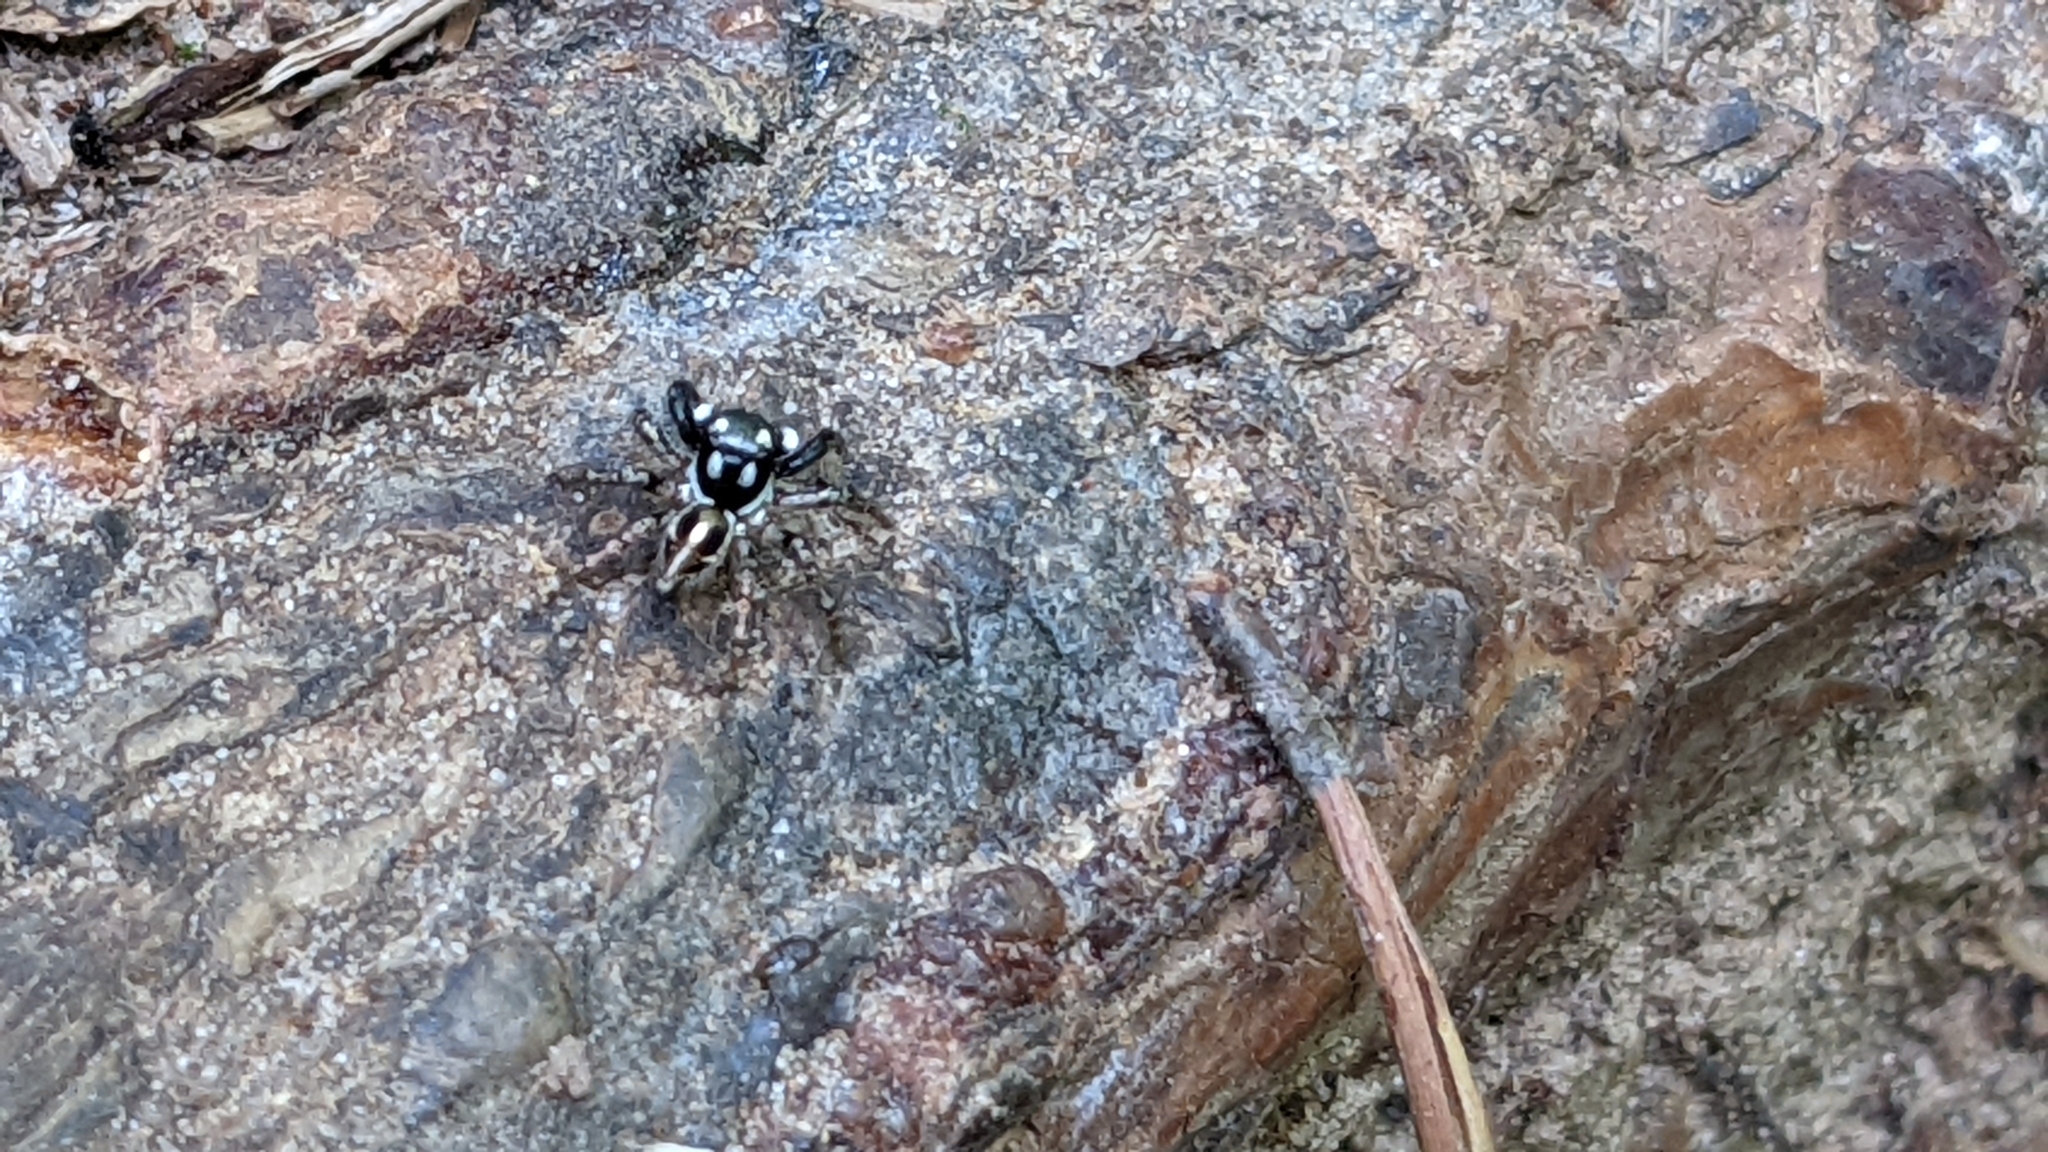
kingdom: Animalia
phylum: Arthropoda
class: Arachnida
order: Araneae
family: Salticidae
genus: Anasaitis
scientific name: Anasaitis canosa
